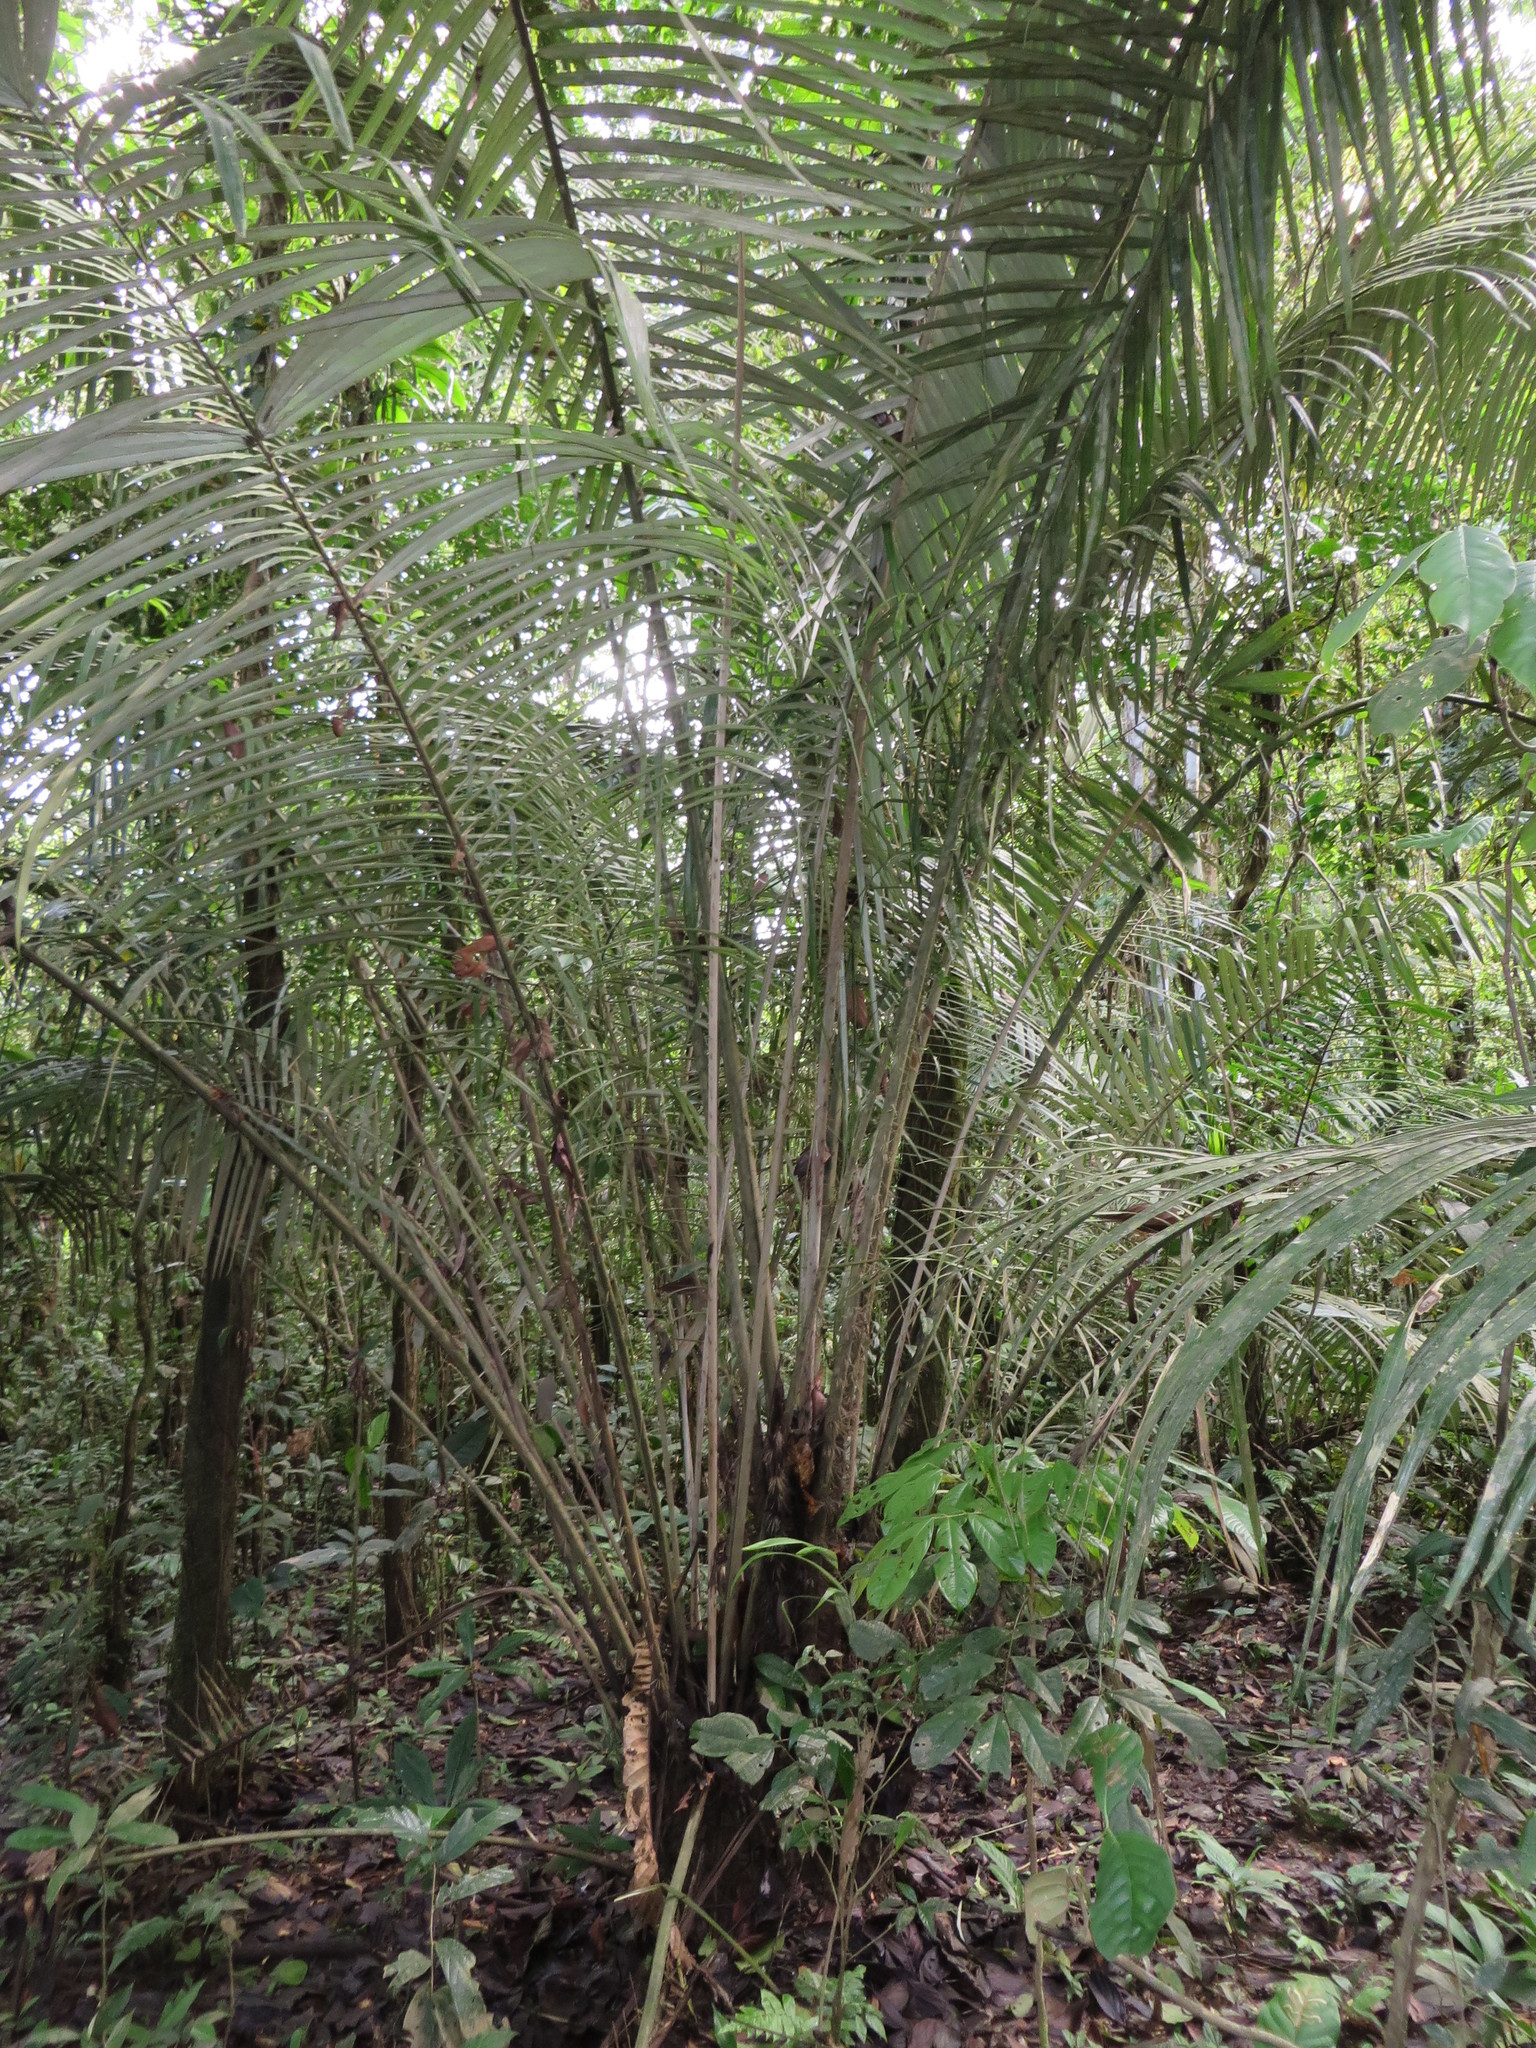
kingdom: Plantae
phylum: Tracheophyta
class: Liliopsida
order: Arecales
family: Arecaceae
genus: Astrocaryum
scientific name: Astrocaryum murumuru
